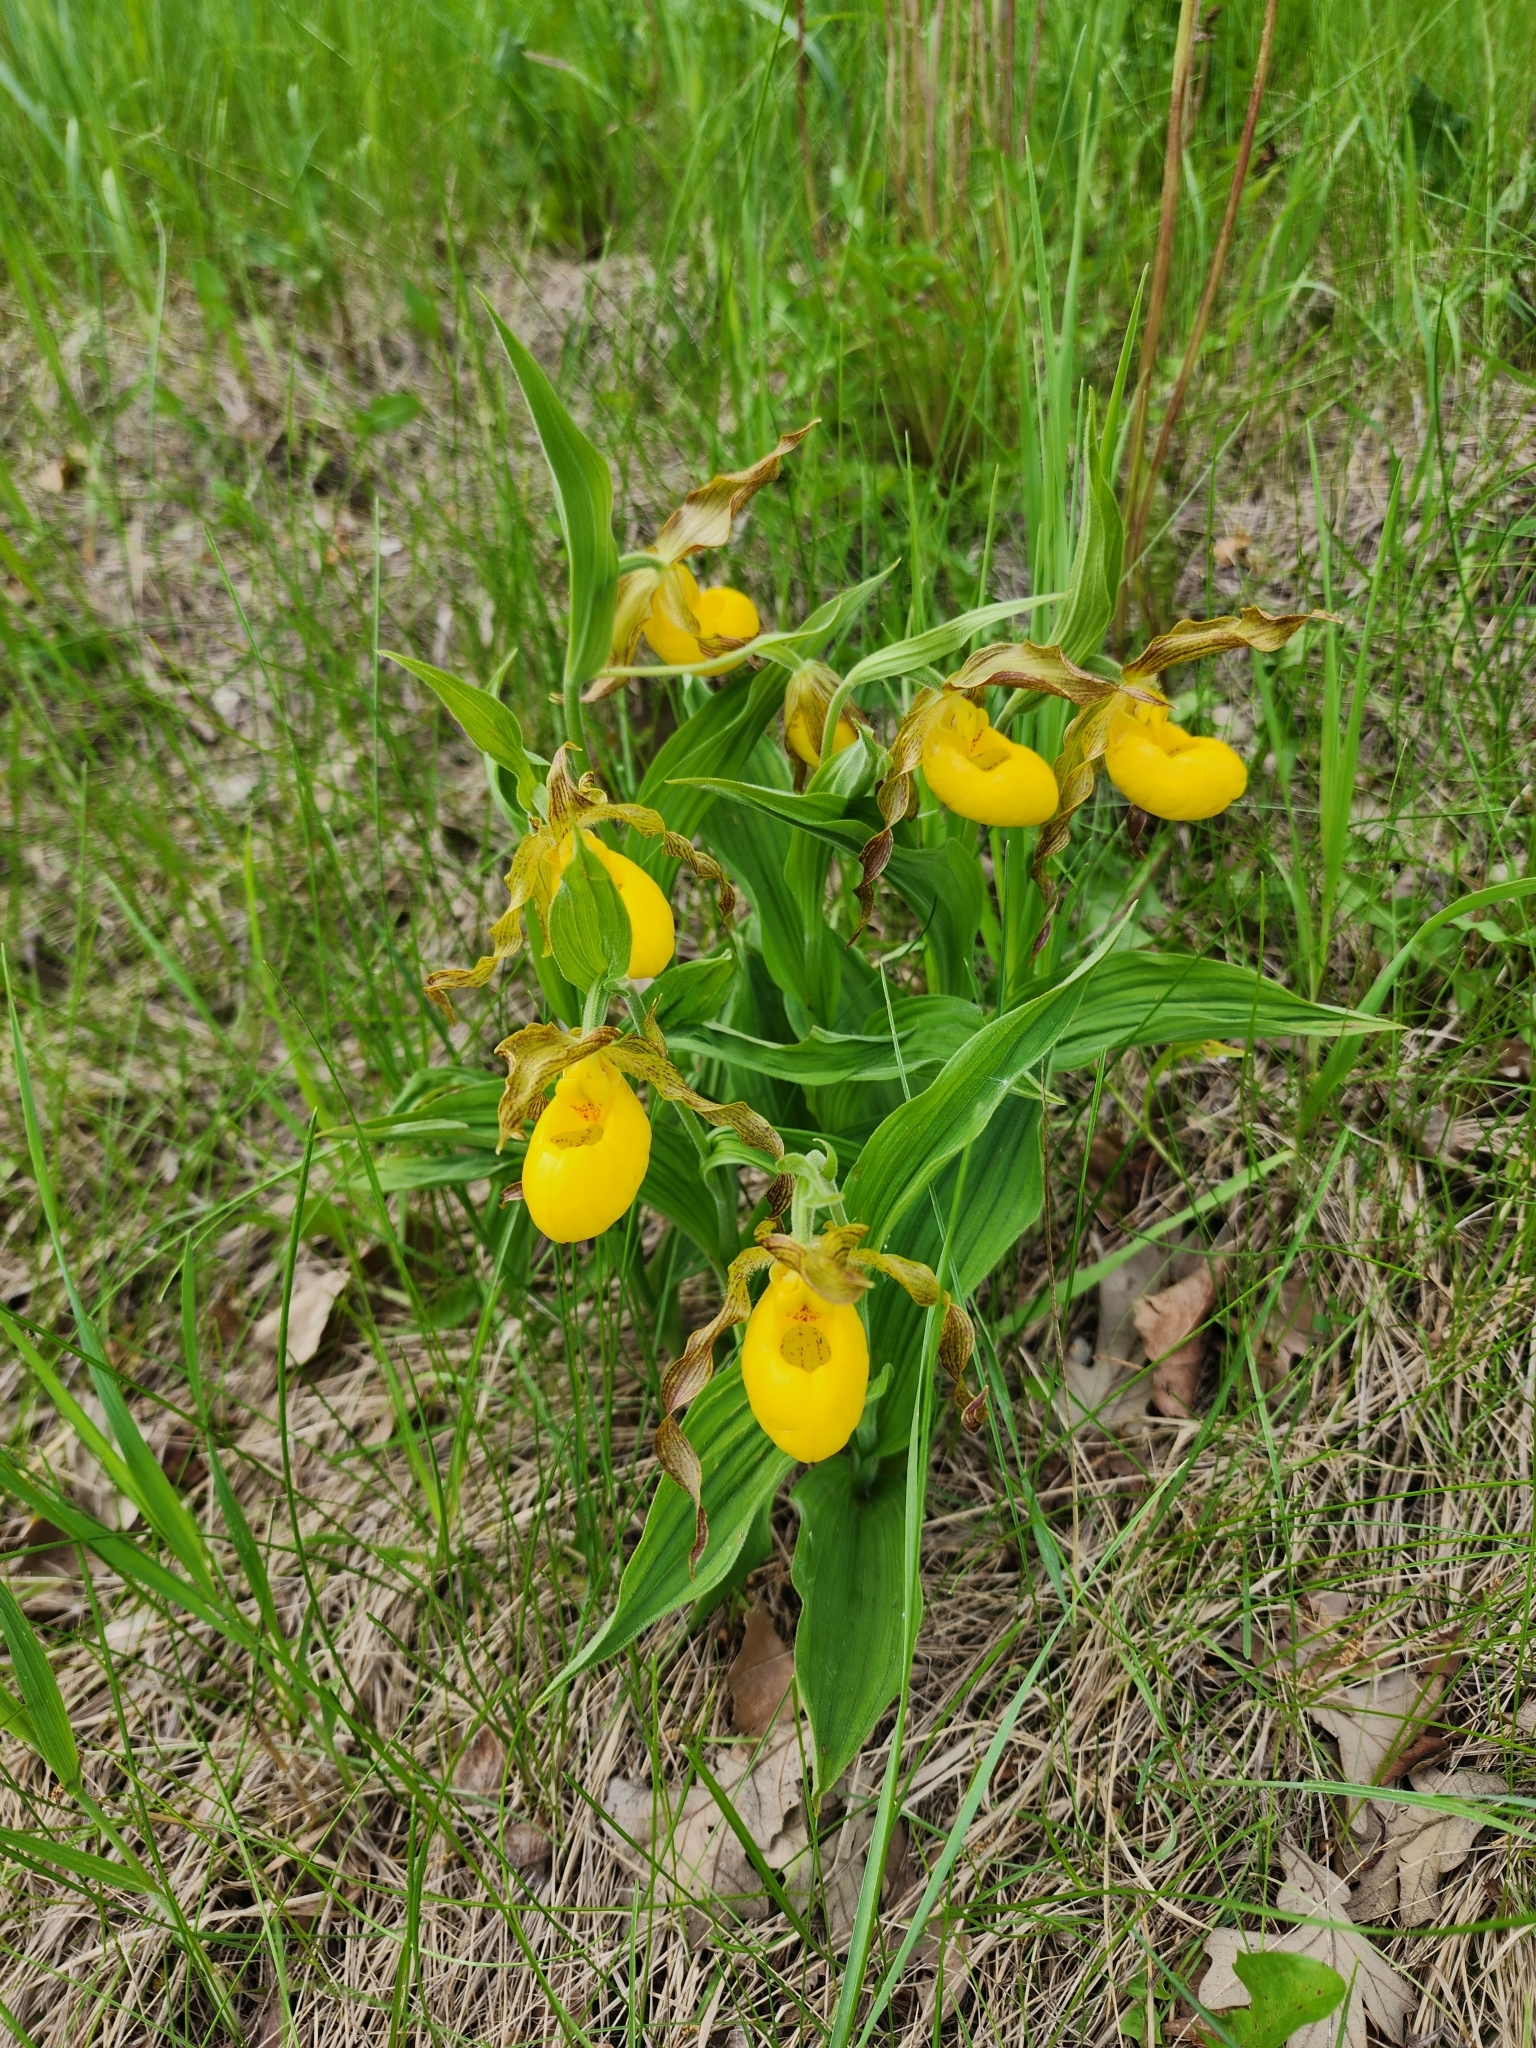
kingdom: Plantae
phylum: Tracheophyta
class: Liliopsida
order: Asparagales
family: Orchidaceae
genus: Cypripedium
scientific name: Cypripedium parviflorum
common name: American yellow lady's-slipper
